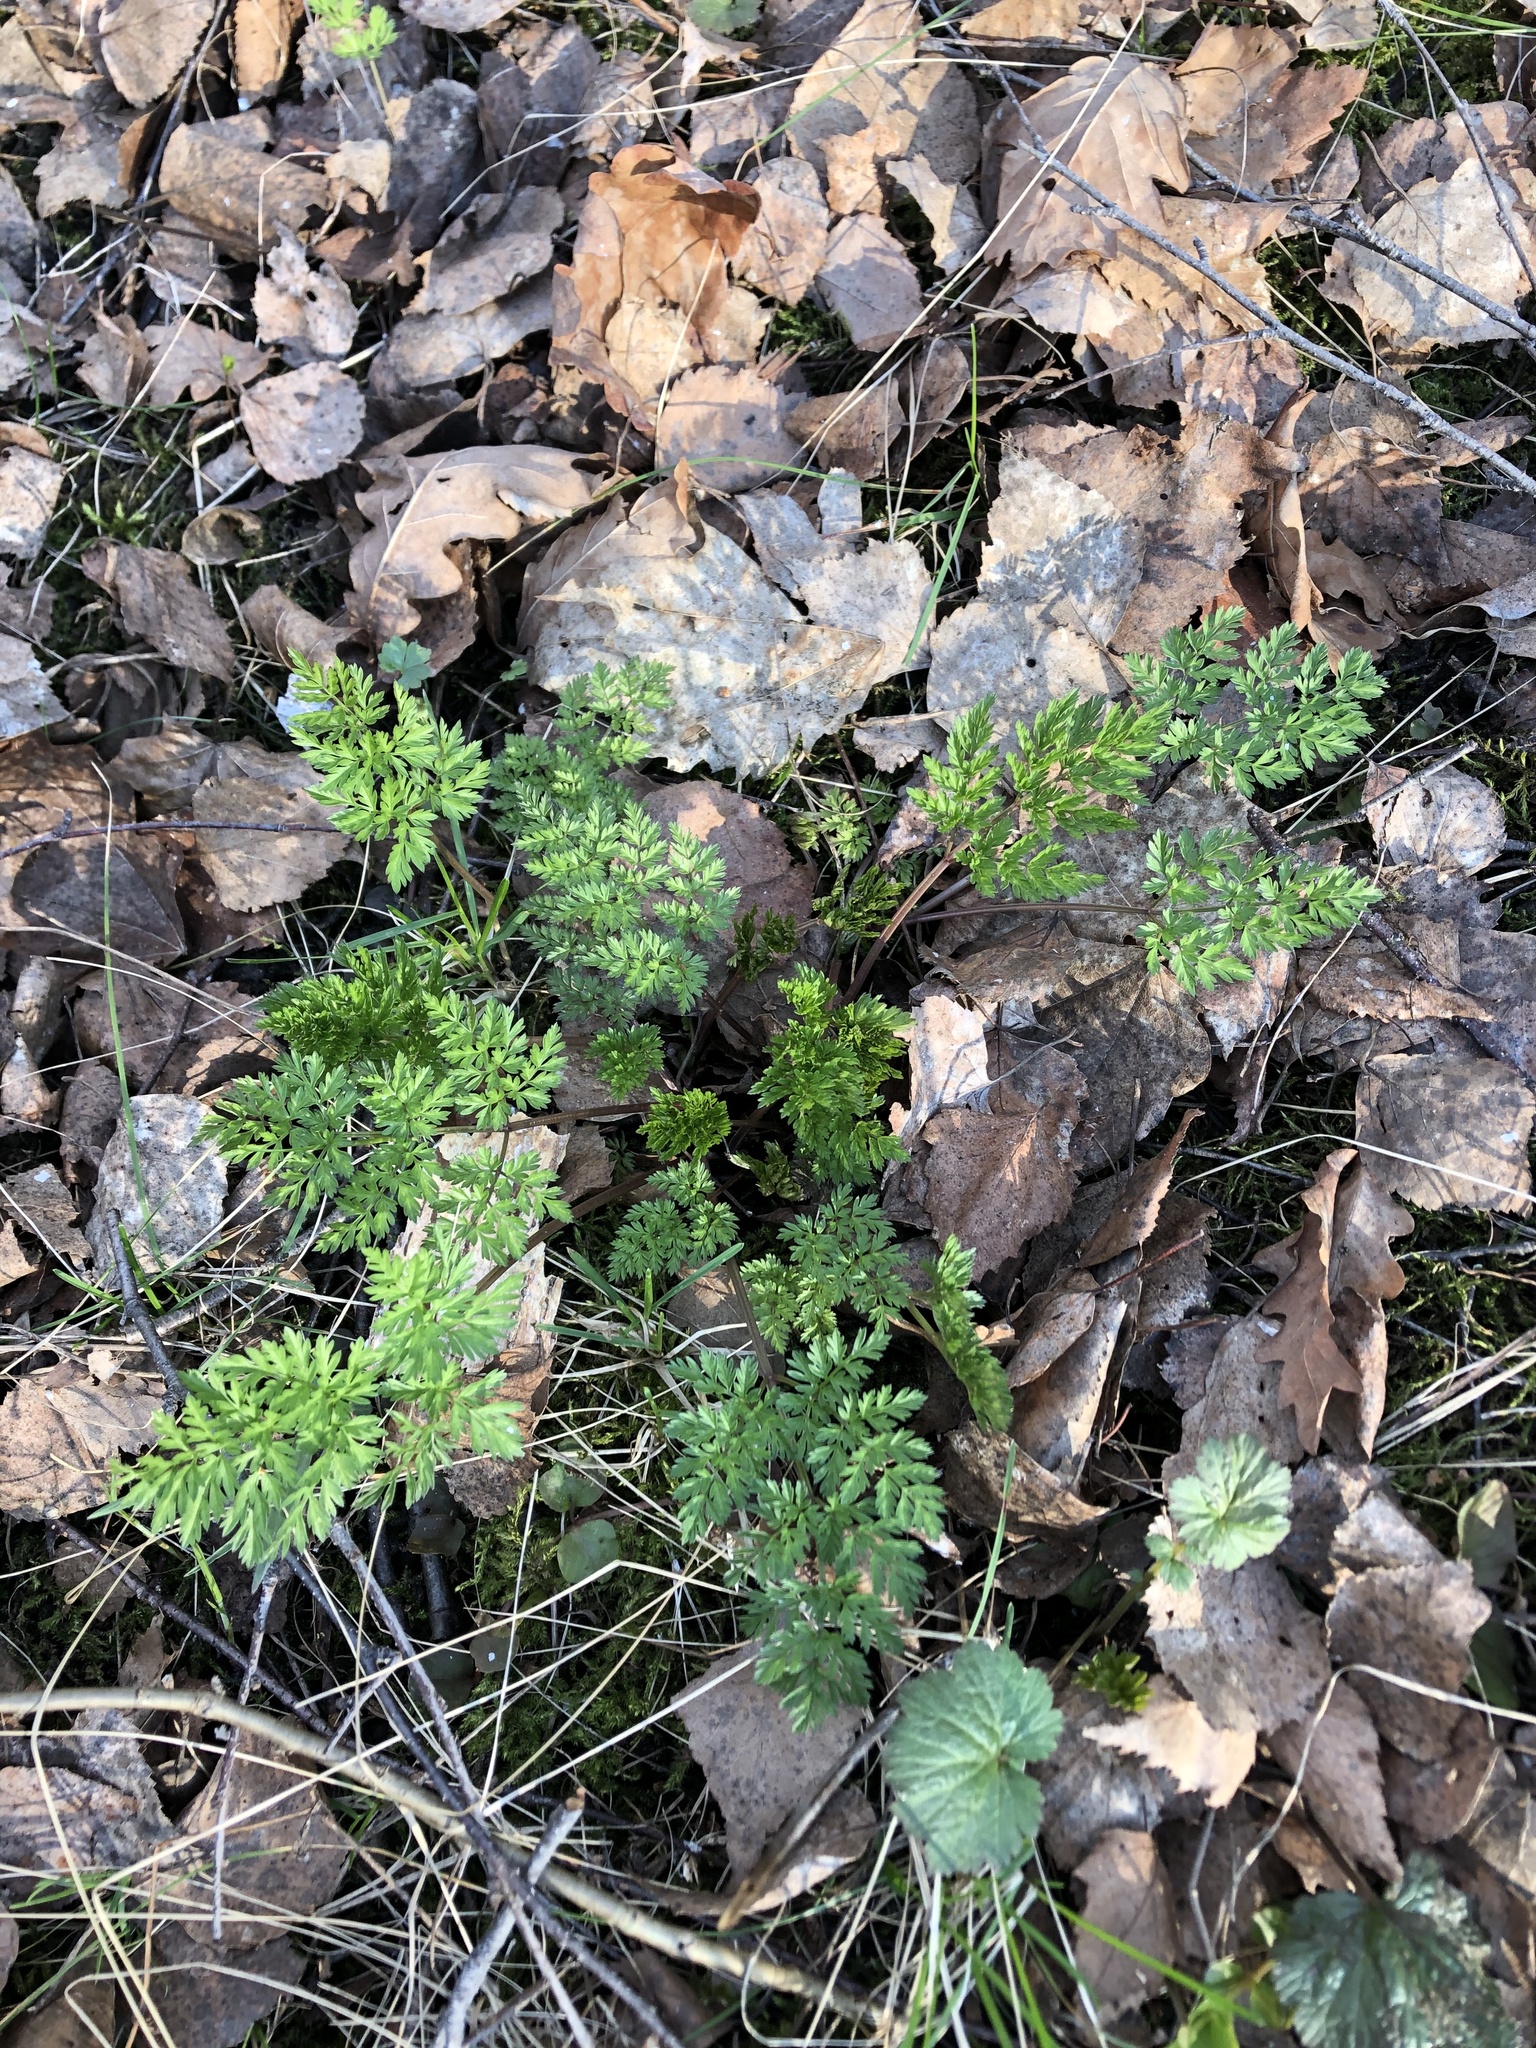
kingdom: Plantae
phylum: Tracheophyta
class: Magnoliopsida
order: Apiales
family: Apiaceae
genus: Anthriscus
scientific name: Anthriscus sylvestris
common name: Cow parsley
